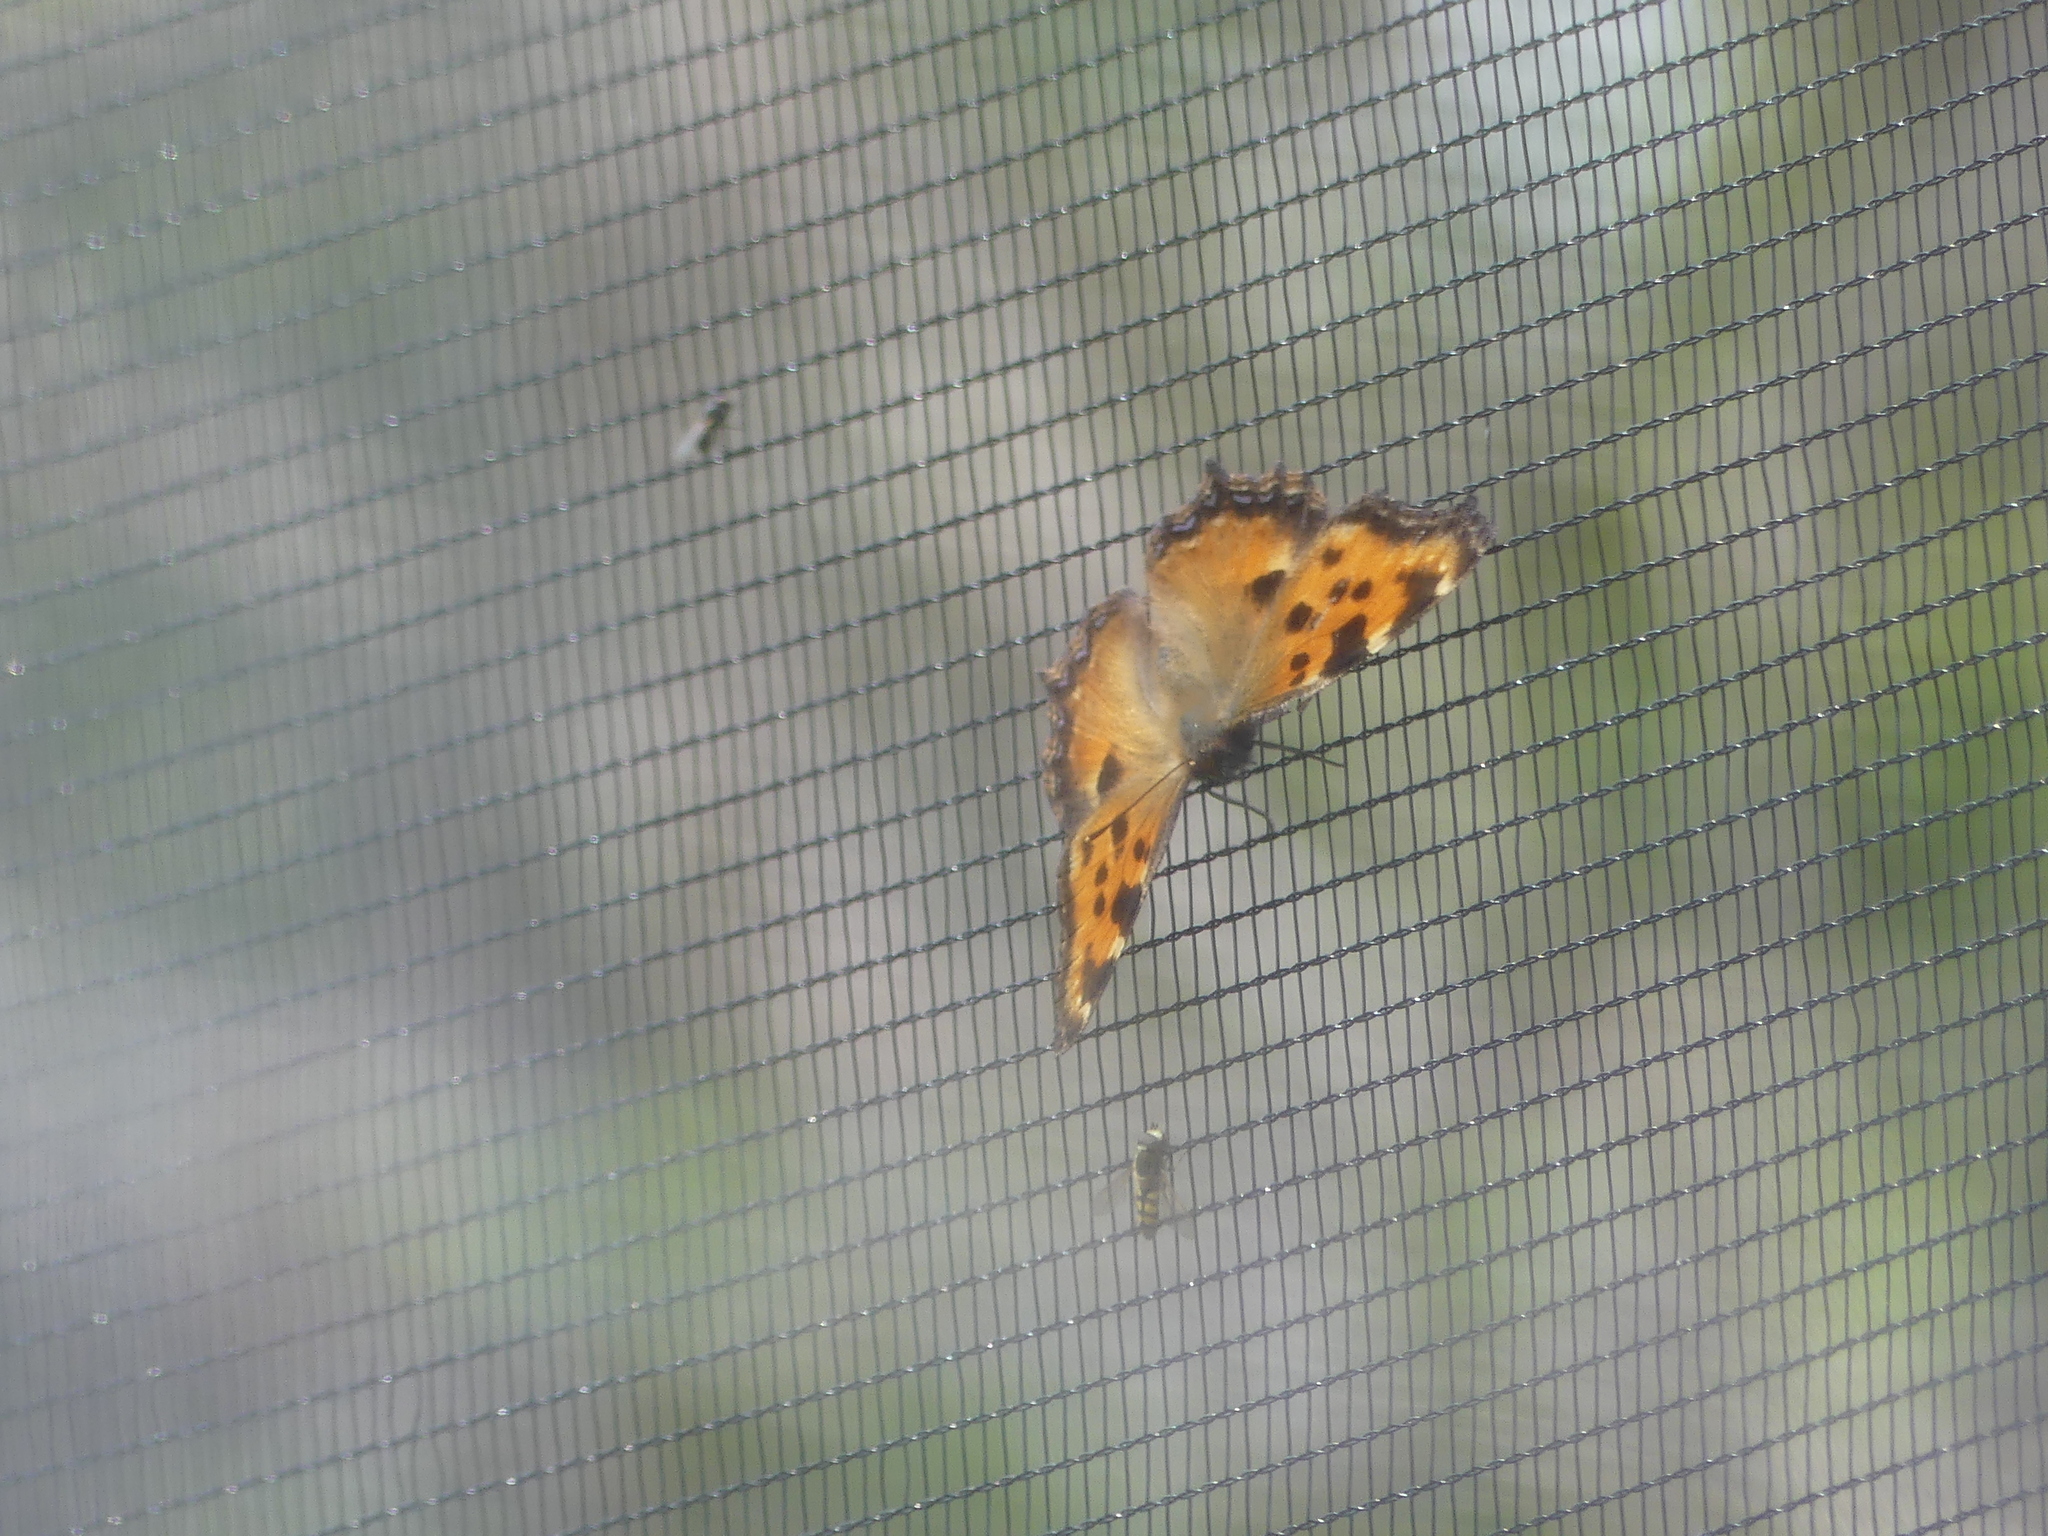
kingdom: Animalia
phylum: Arthropoda
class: Insecta
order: Lepidoptera
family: Nymphalidae
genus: Nymphalis
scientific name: Nymphalis polychloros
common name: Large tortoiseshell
